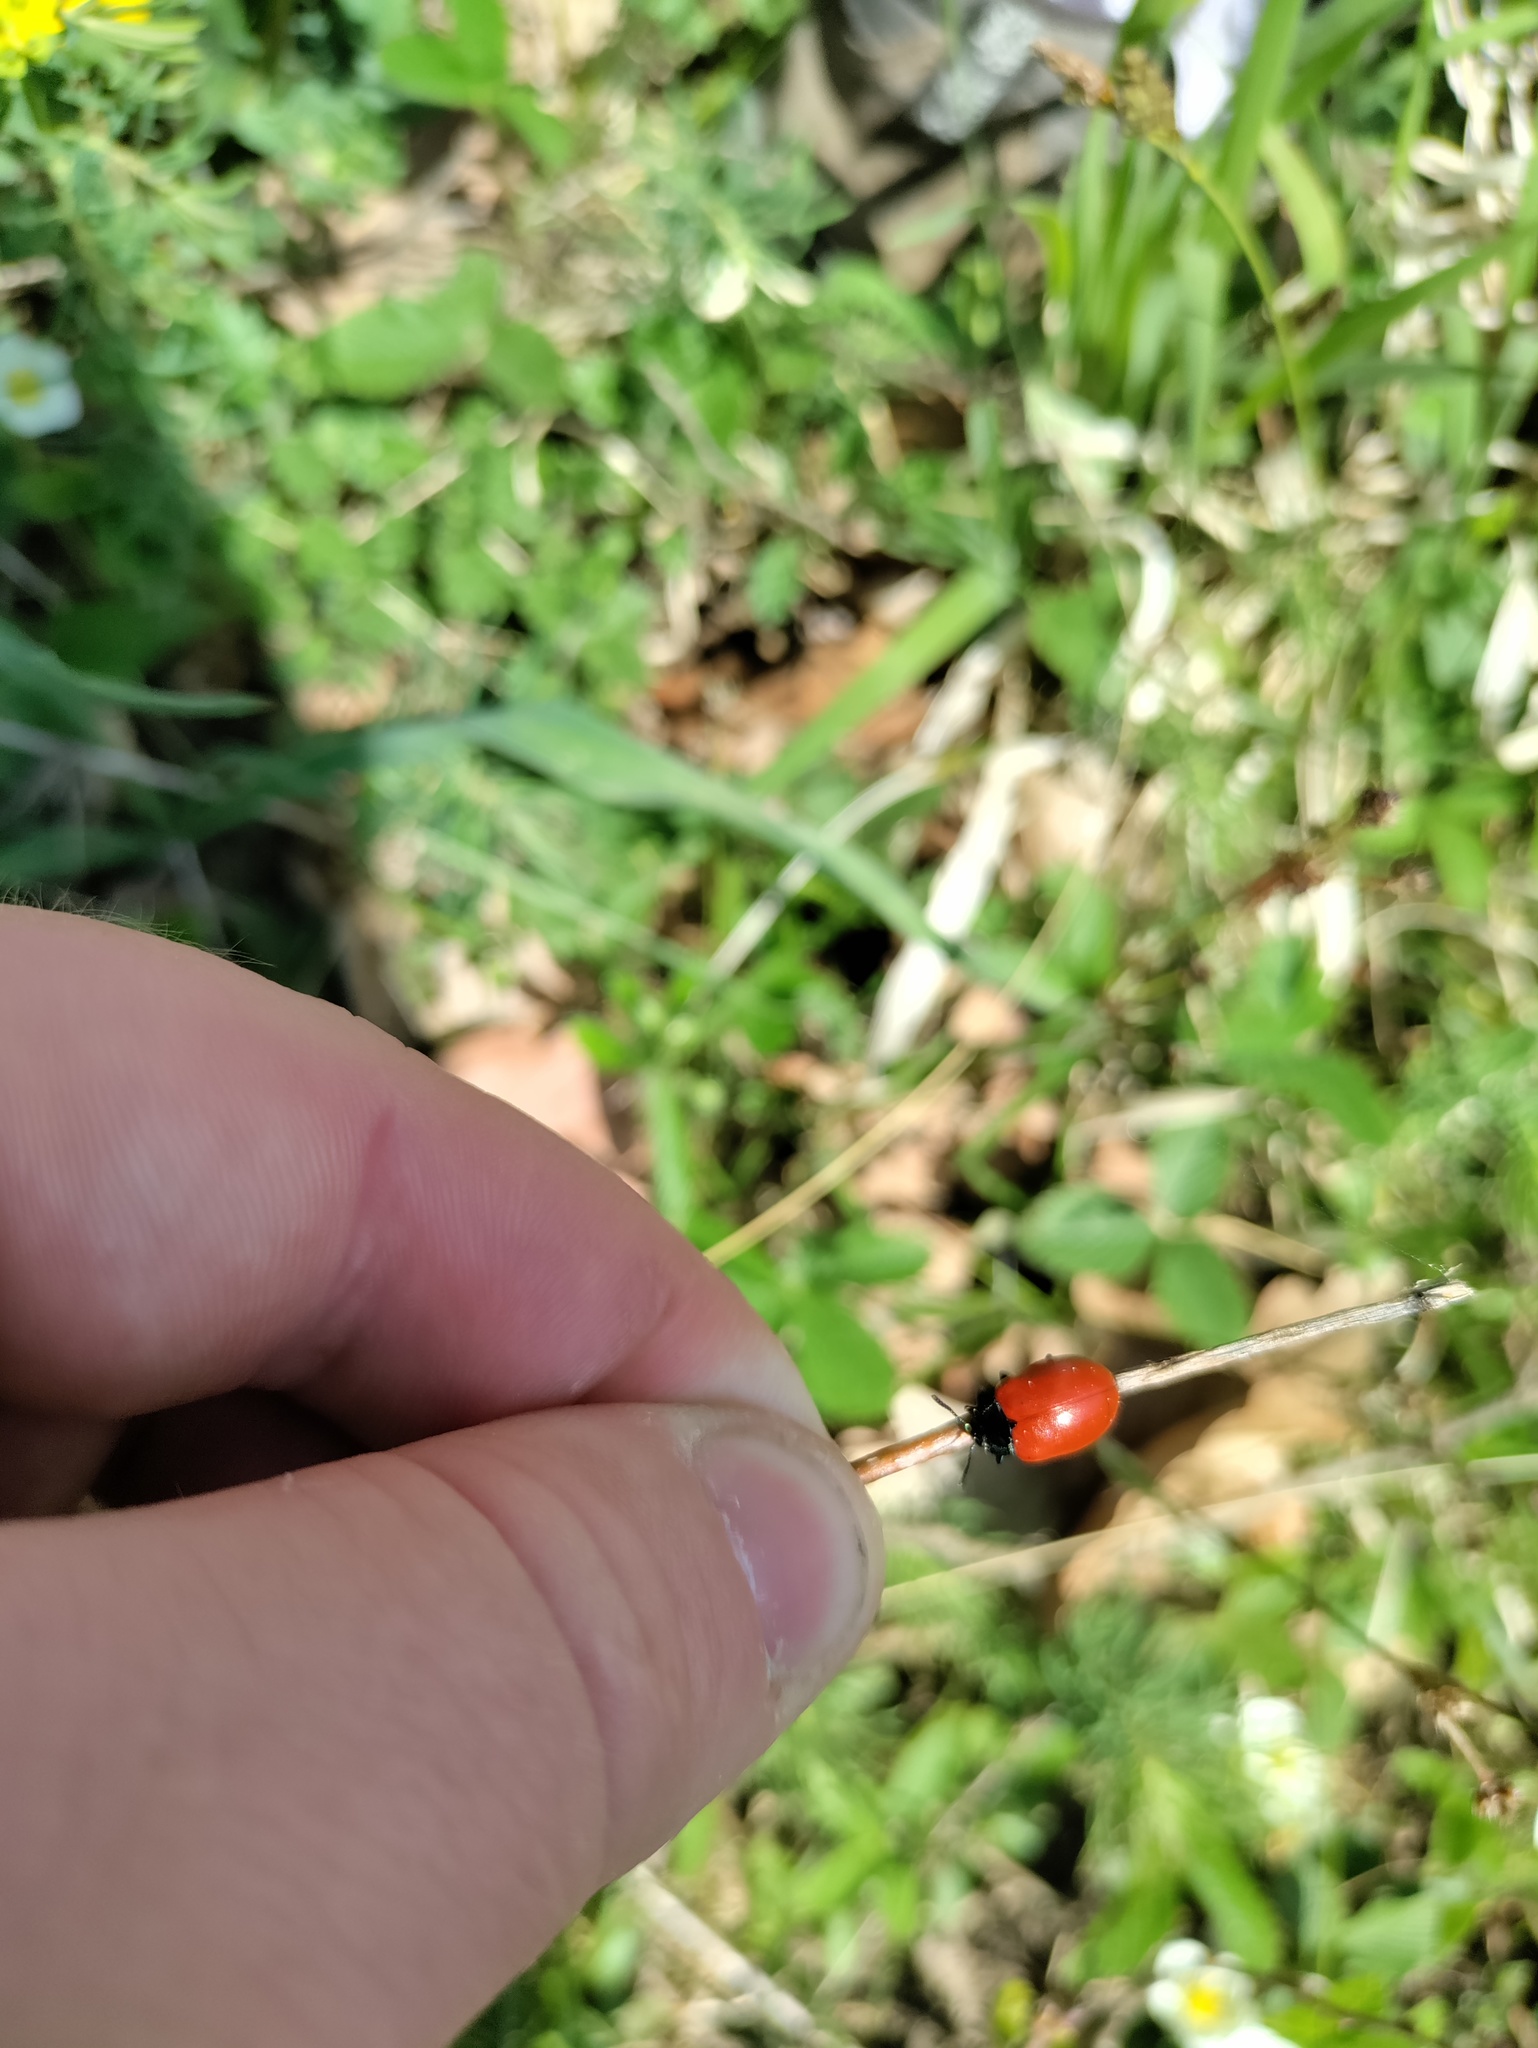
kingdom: Animalia
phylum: Arthropoda
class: Insecta
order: Coleoptera
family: Chrysomelidae
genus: Chrysomela
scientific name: Chrysomela populi
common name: Red poplar leaf beetle
